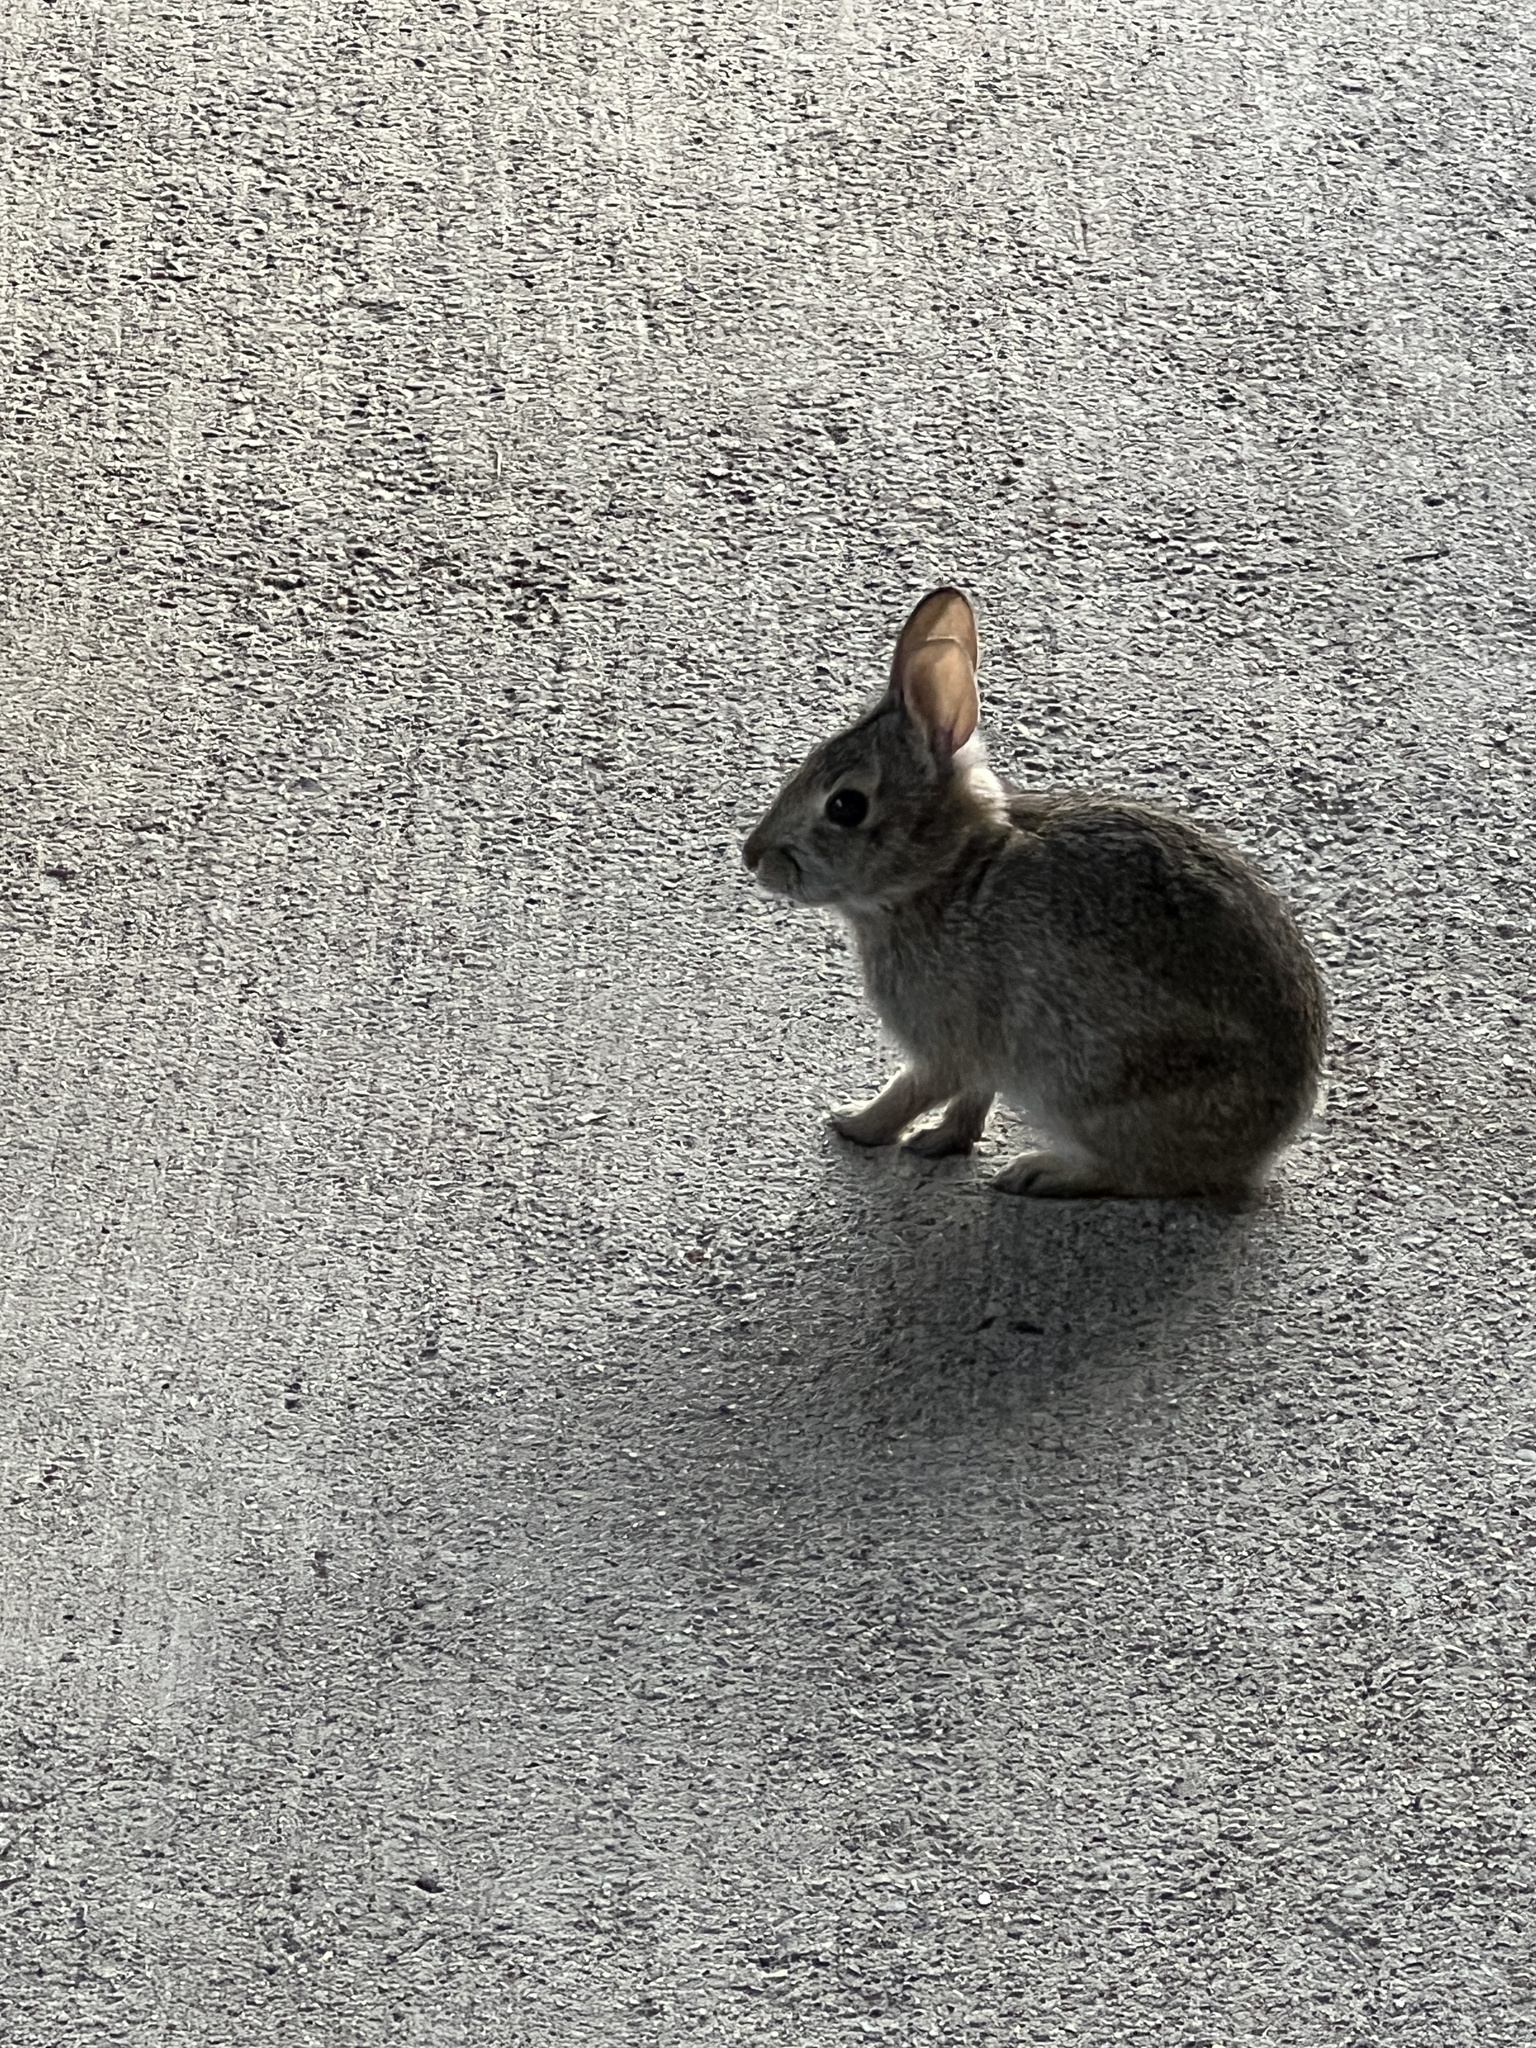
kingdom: Animalia
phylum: Chordata
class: Mammalia
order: Lagomorpha
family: Leporidae
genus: Sylvilagus
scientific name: Sylvilagus floridanus
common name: Eastern cottontail
